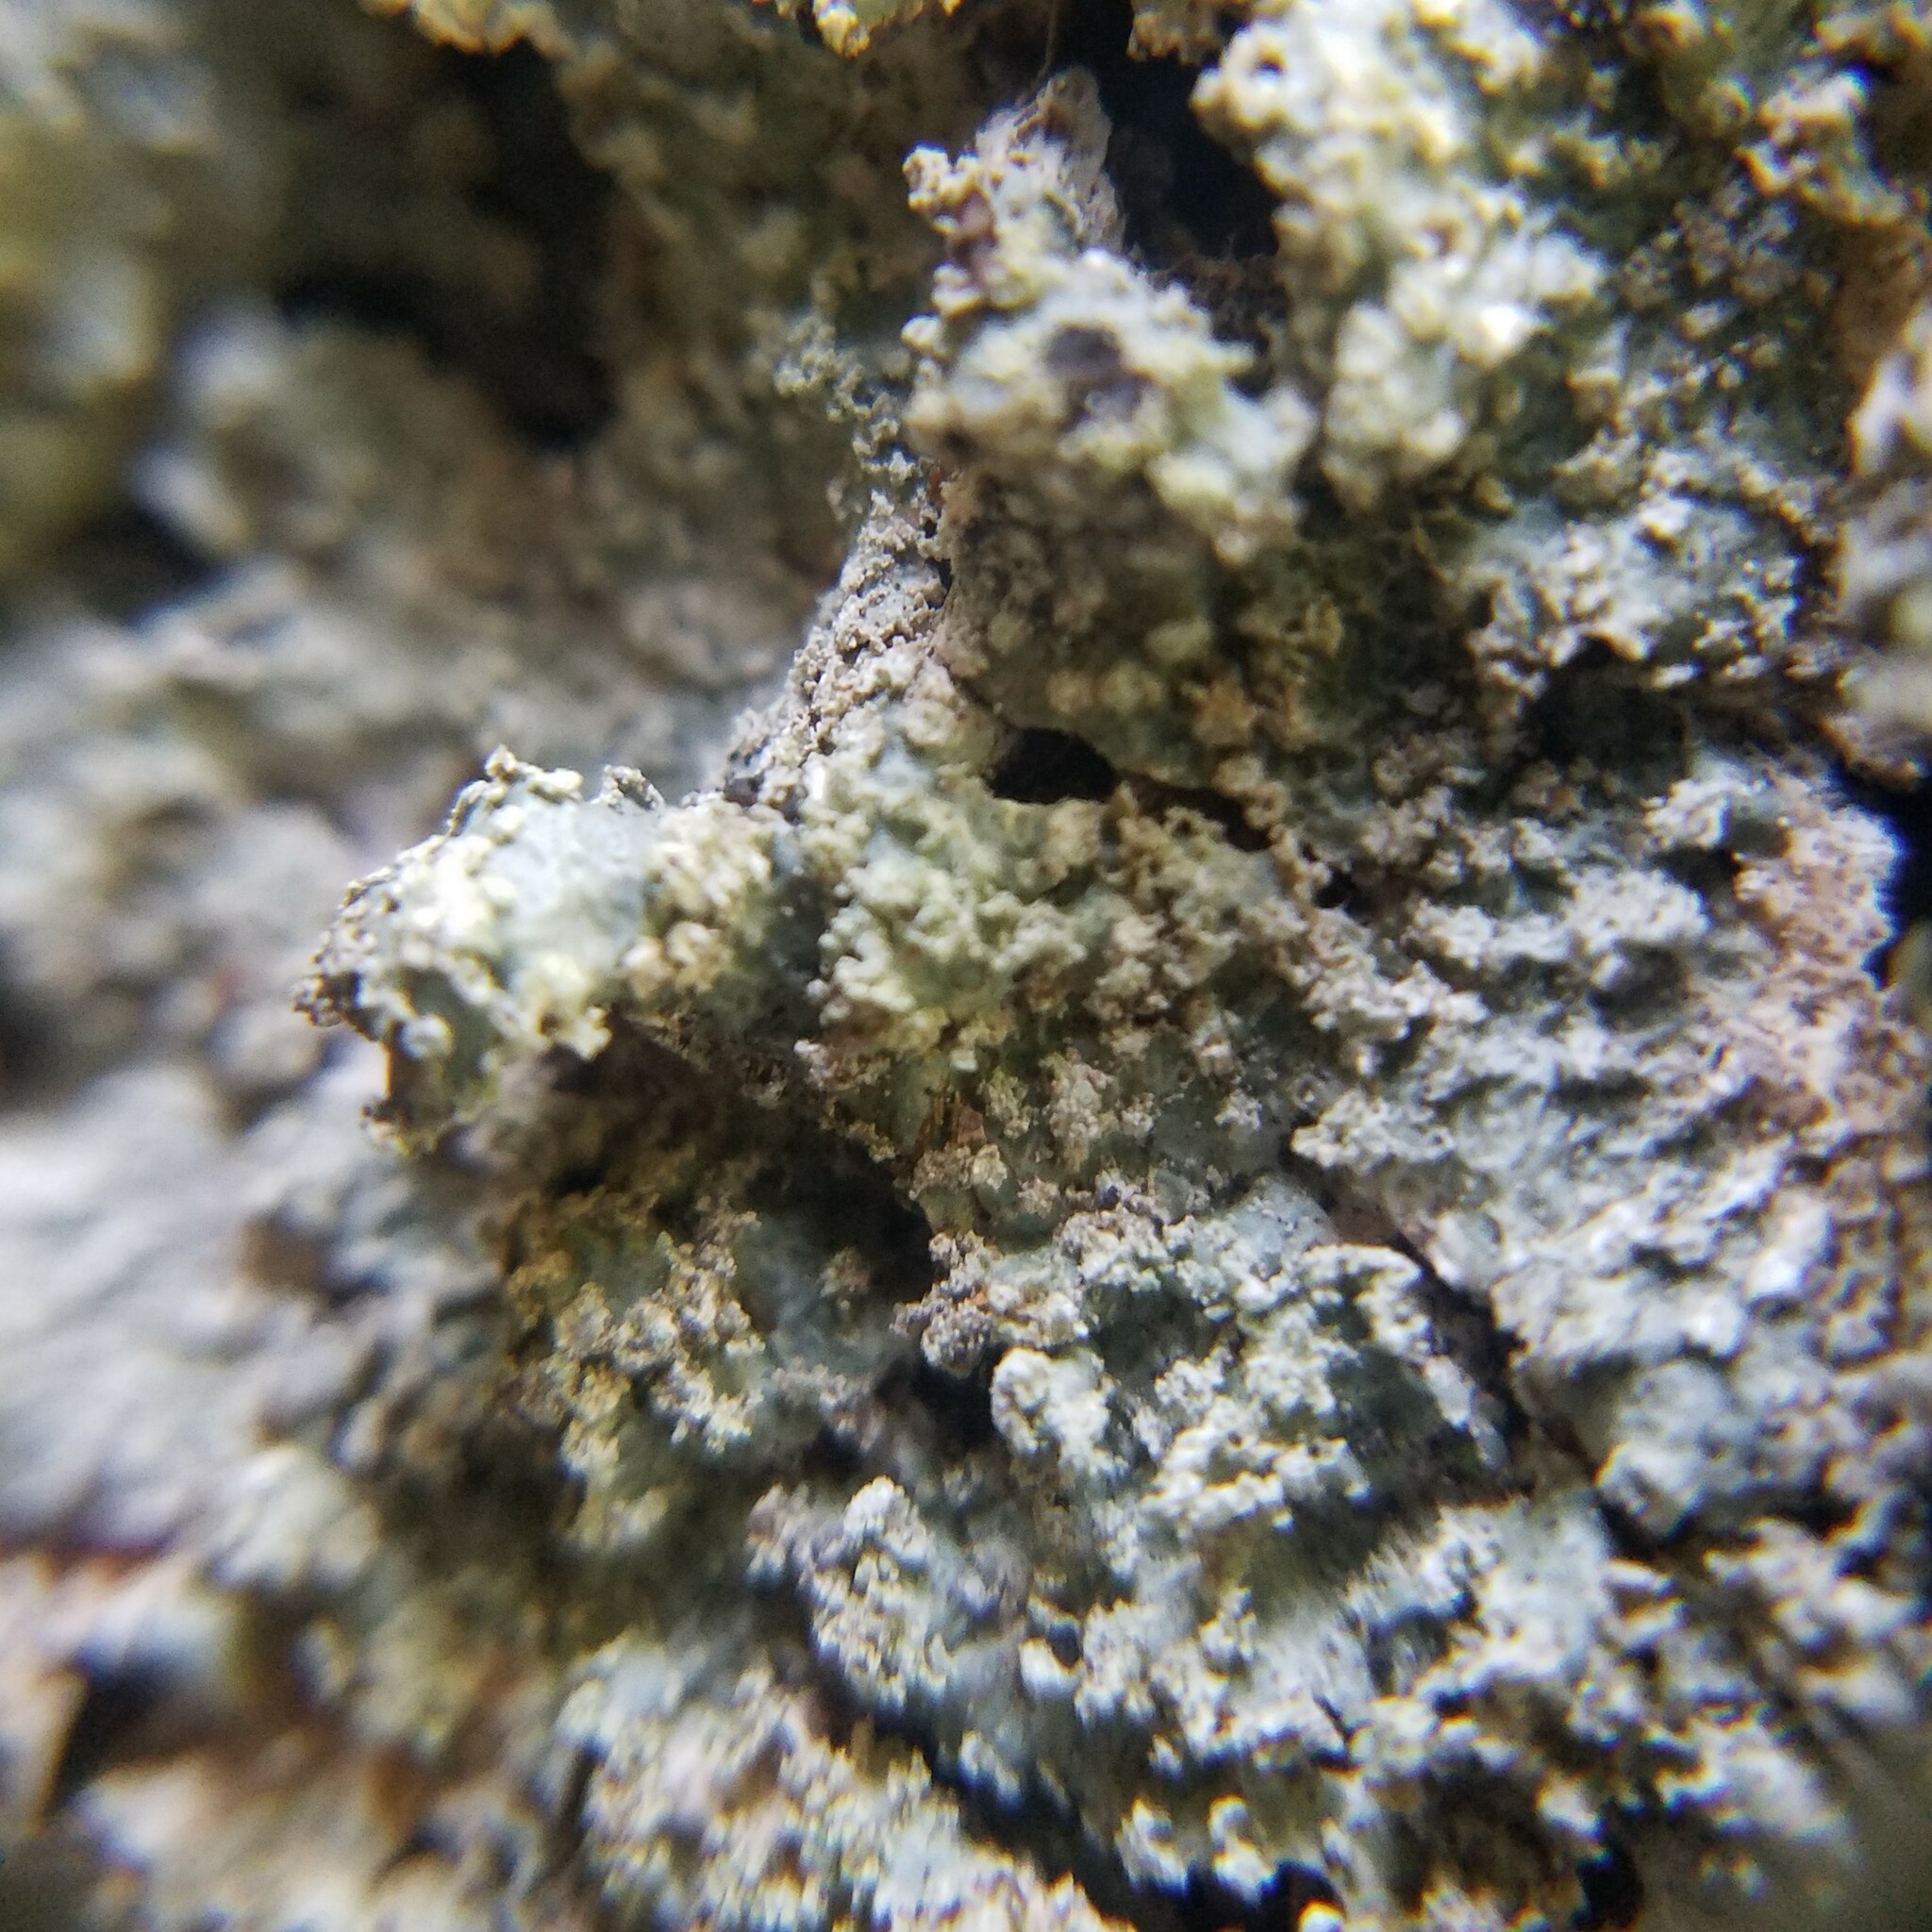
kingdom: Fungi
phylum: Ascomycota
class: Lecanoromycetes
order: Lecanorales
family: Parmeliaceae
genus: Punctelia
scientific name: Punctelia caseana
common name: Moondust speckled lichen
